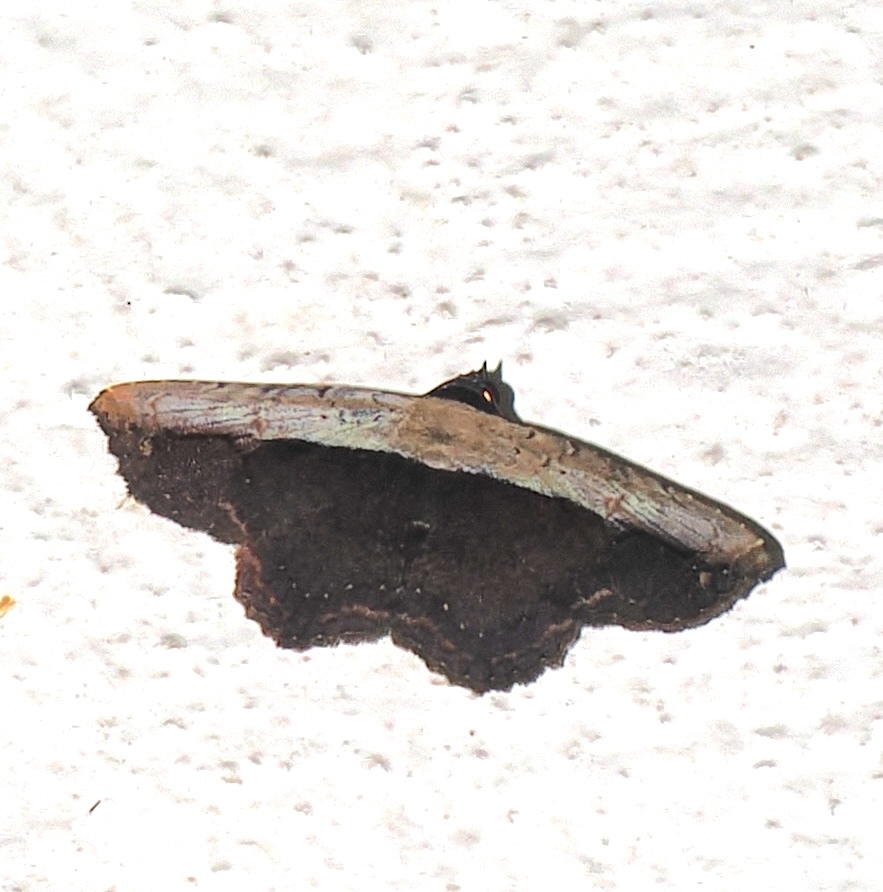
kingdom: Animalia
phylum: Arthropoda
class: Insecta
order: Lepidoptera
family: Erebidae
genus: Selenisa
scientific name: Selenisa sueroides
